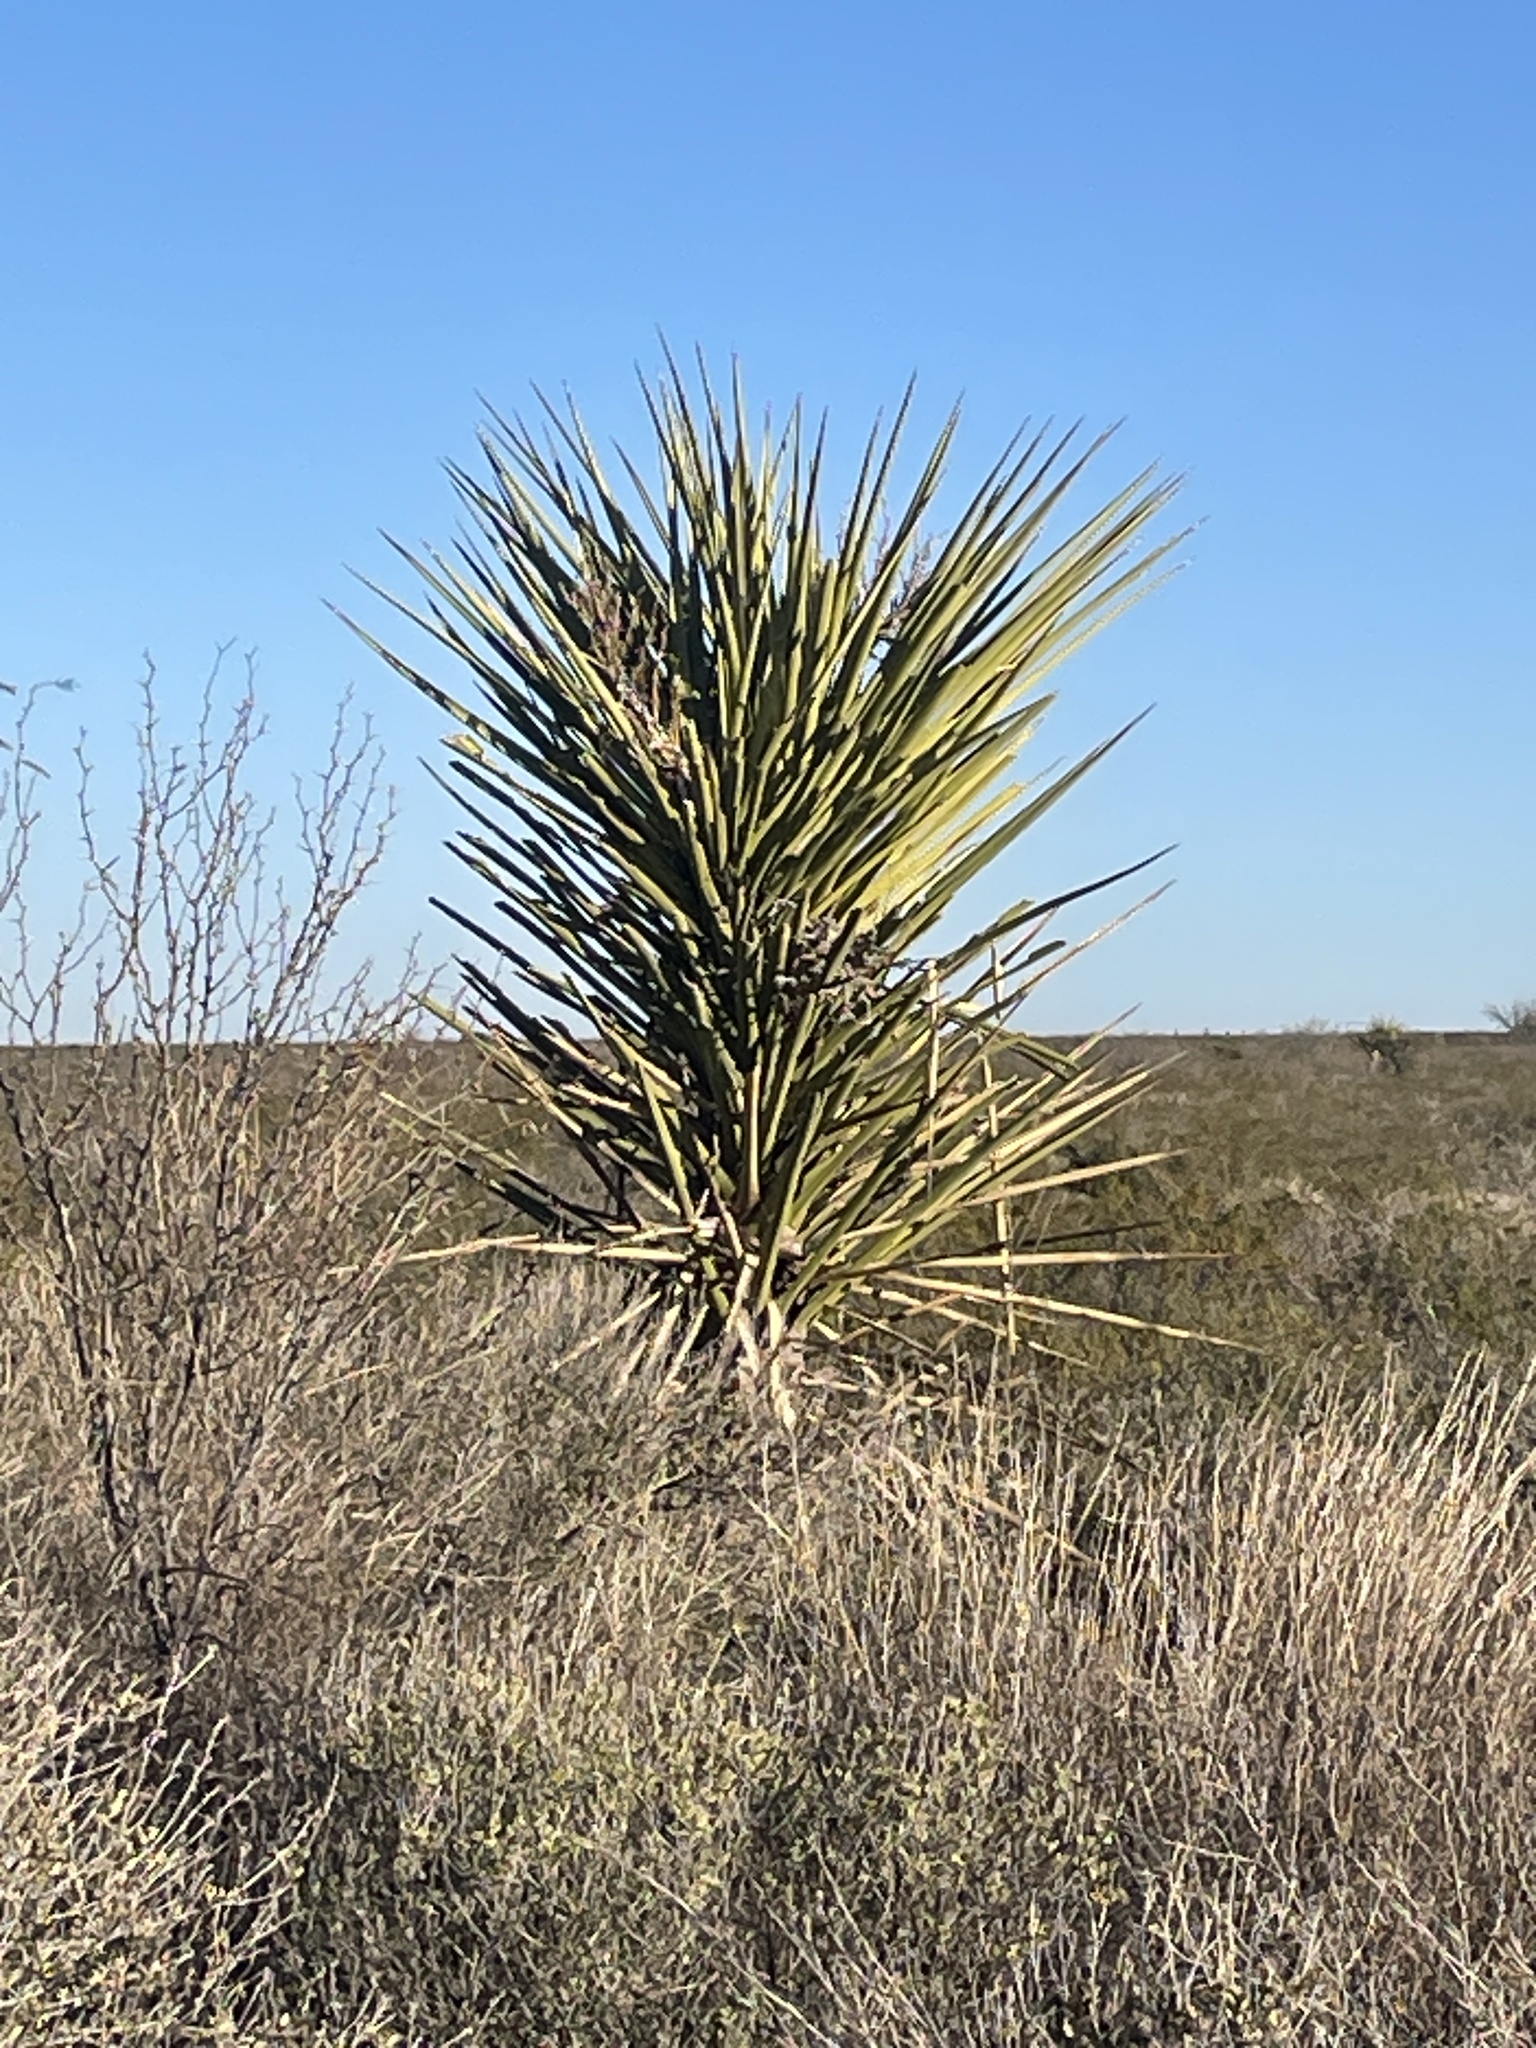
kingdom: Plantae
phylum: Tracheophyta
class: Liliopsida
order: Asparagales
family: Asparagaceae
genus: Yucca
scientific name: Yucca treculiana
